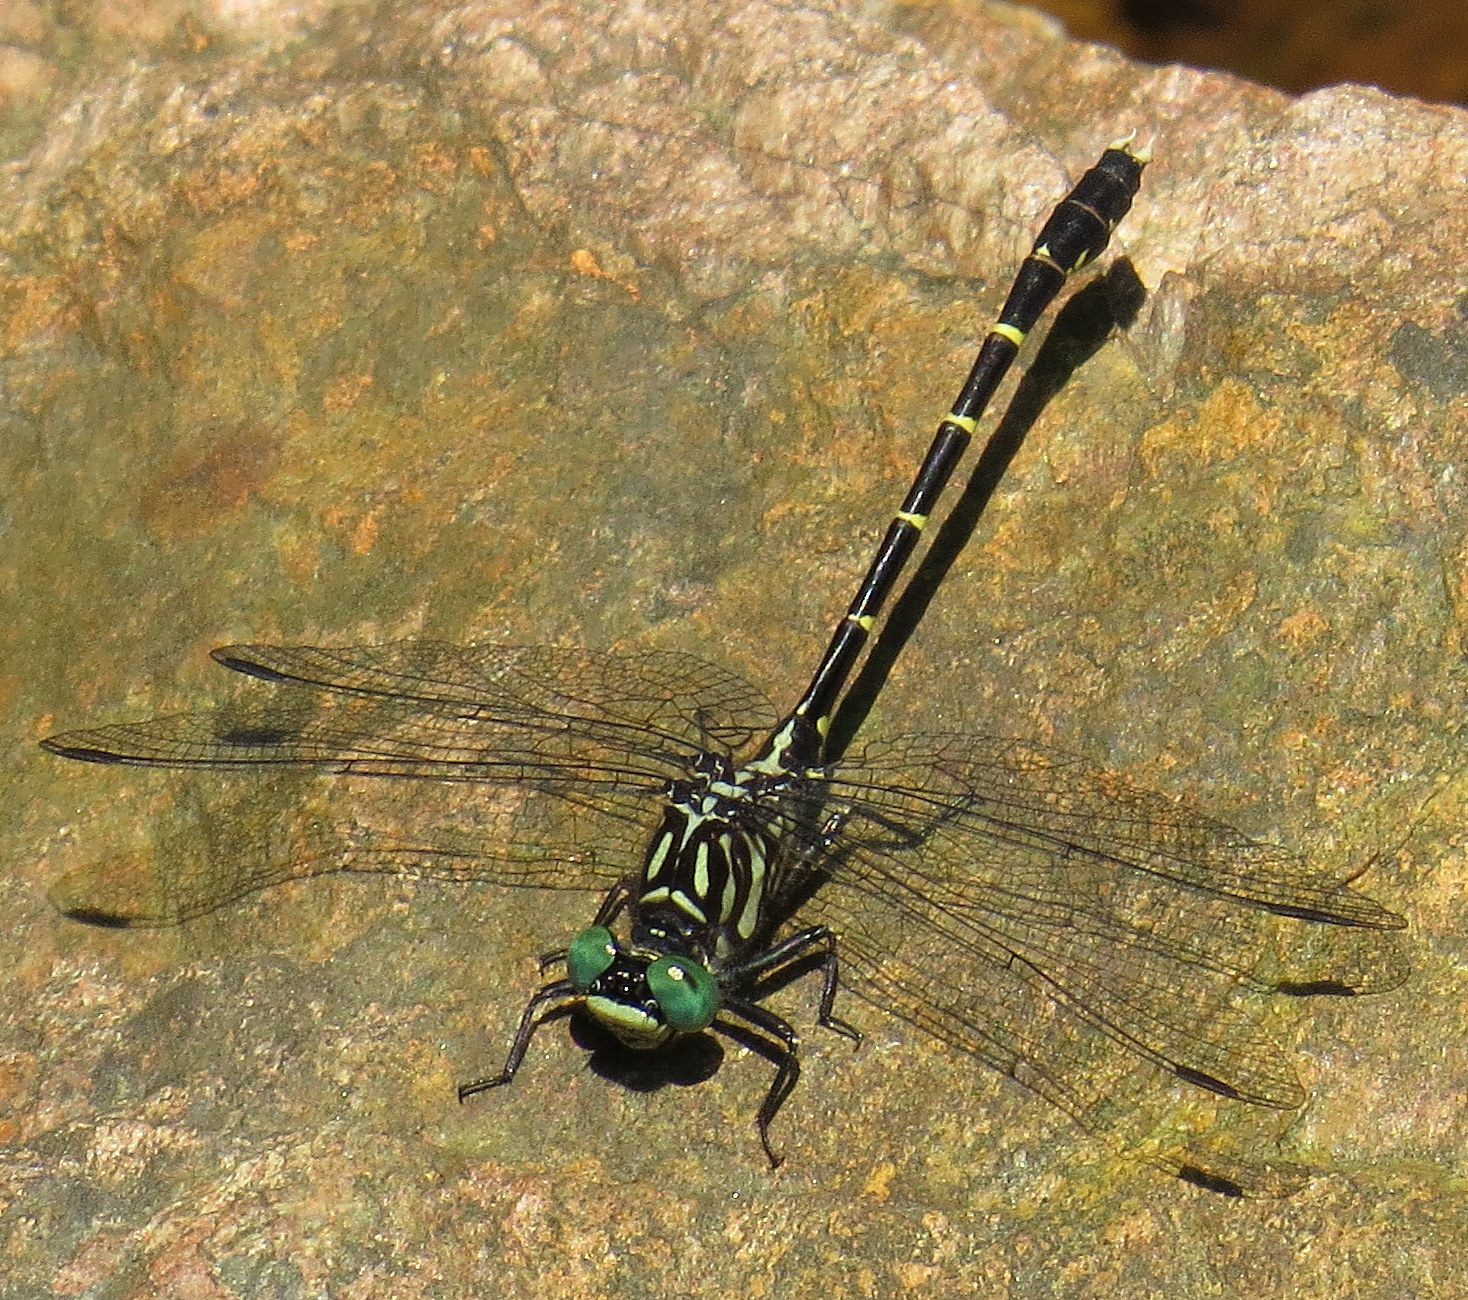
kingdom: Animalia
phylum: Arthropoda
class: Insecta
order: Odonata
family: Gomphidae
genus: Stylogomphus
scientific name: Stylogomphus albistylus
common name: Eastern least clubtail
